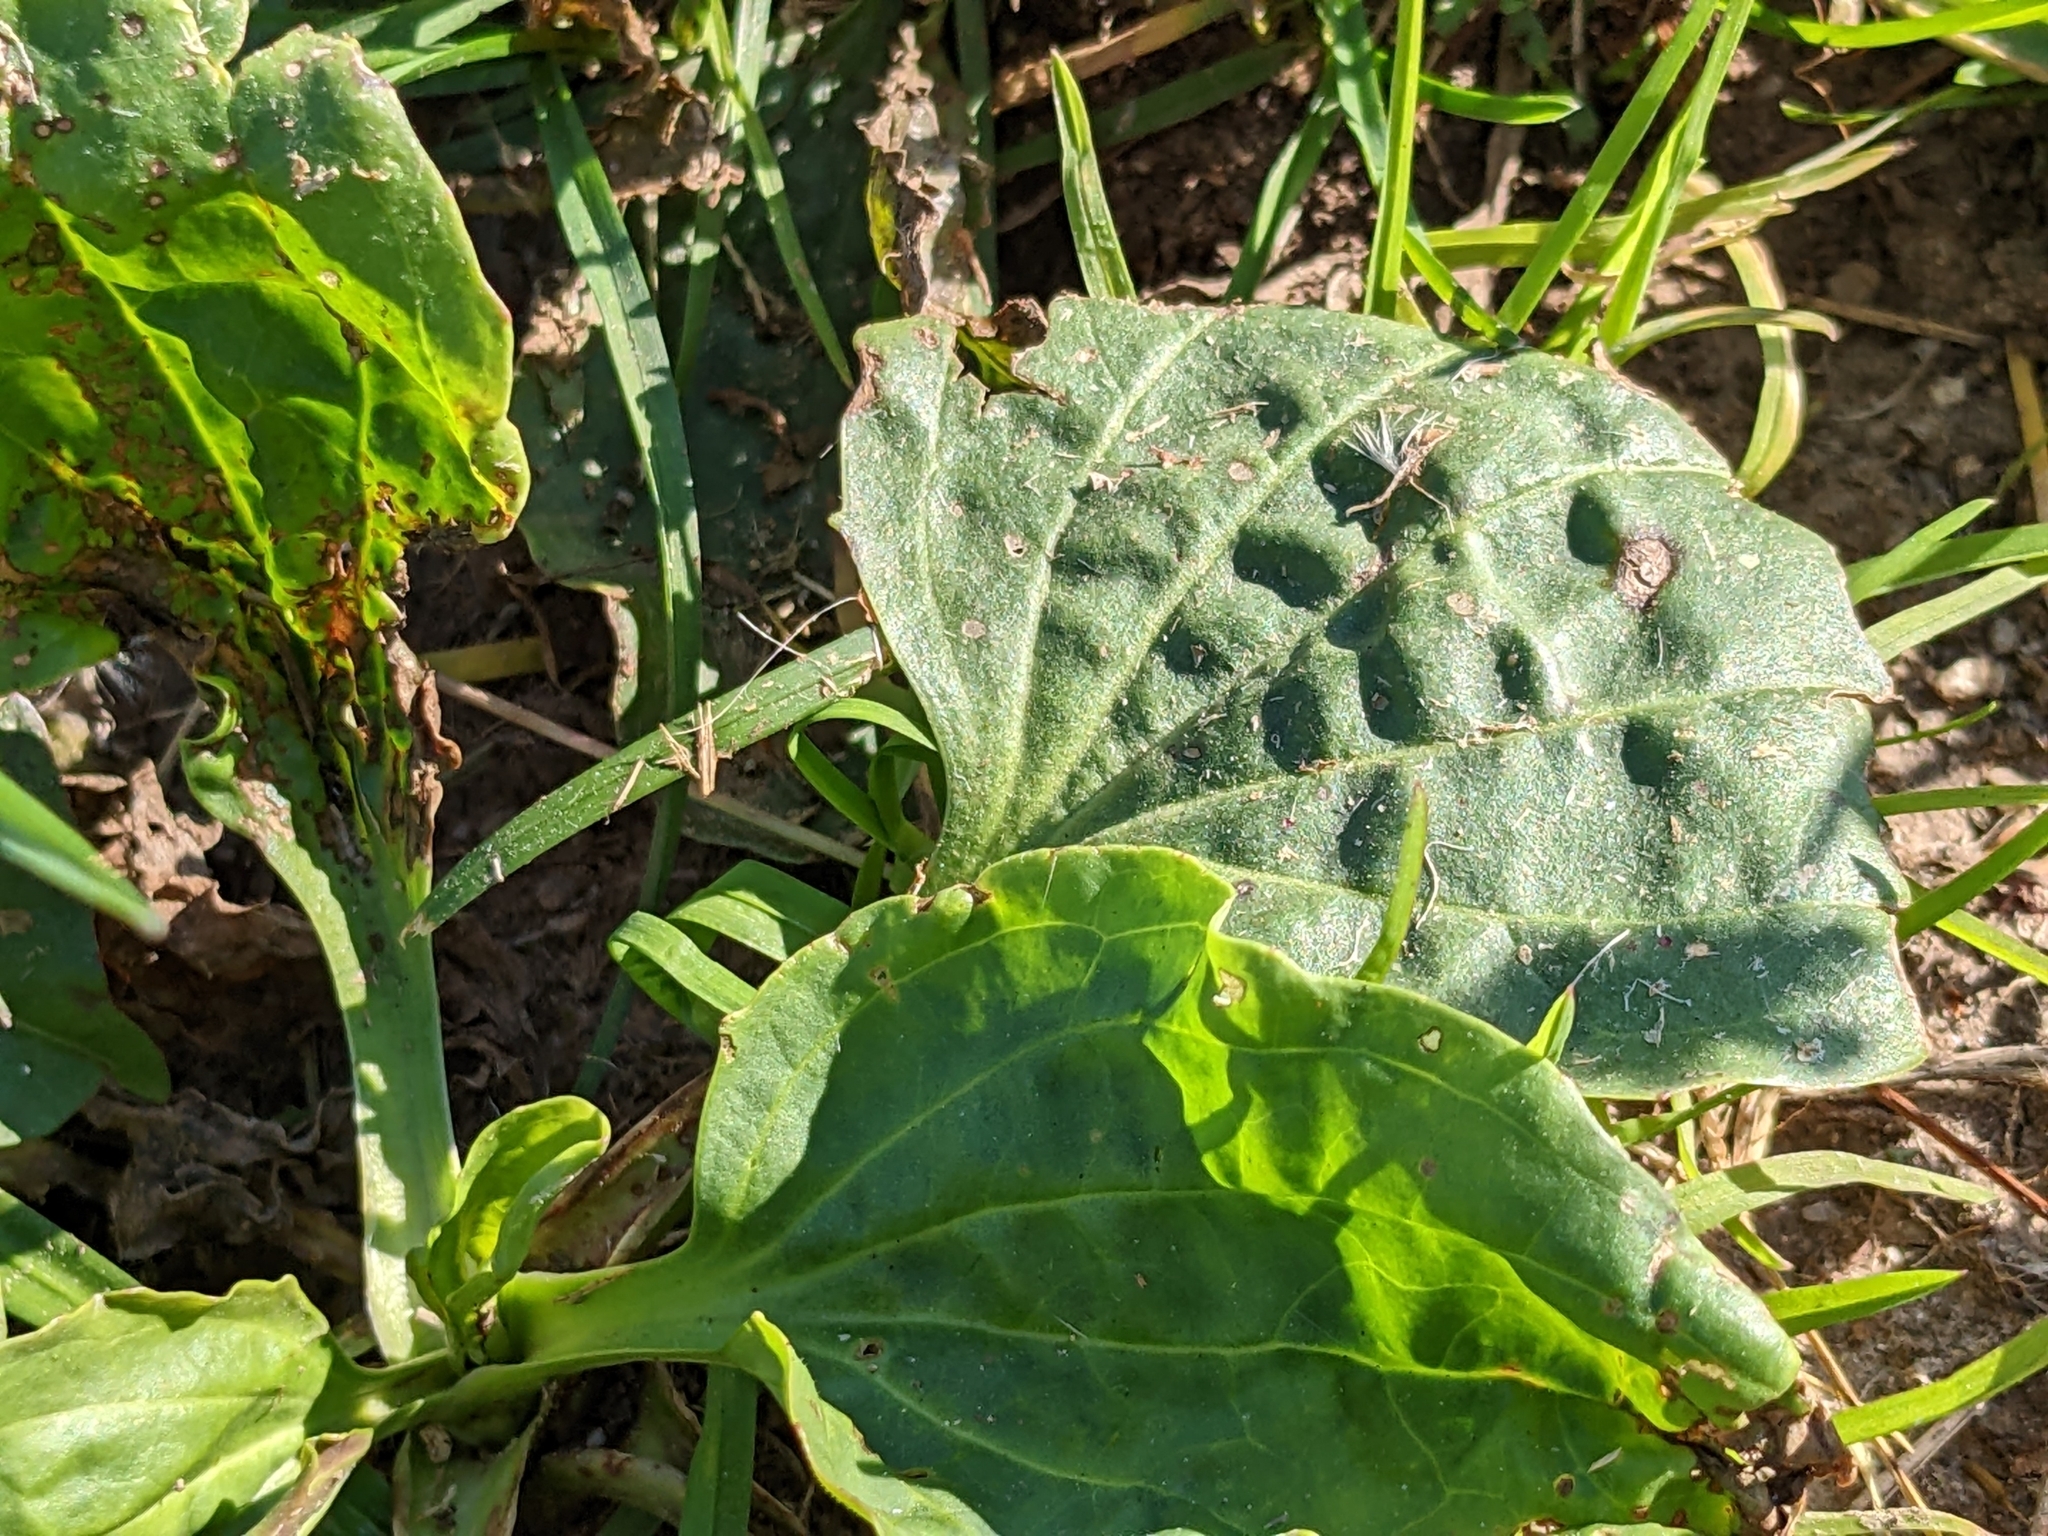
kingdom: Plantae
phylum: Tracheophyta
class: Magnoliopsida
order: Lamiales
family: Plantaginaceae
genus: Plantago
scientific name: Plantago major
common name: Common plantain
